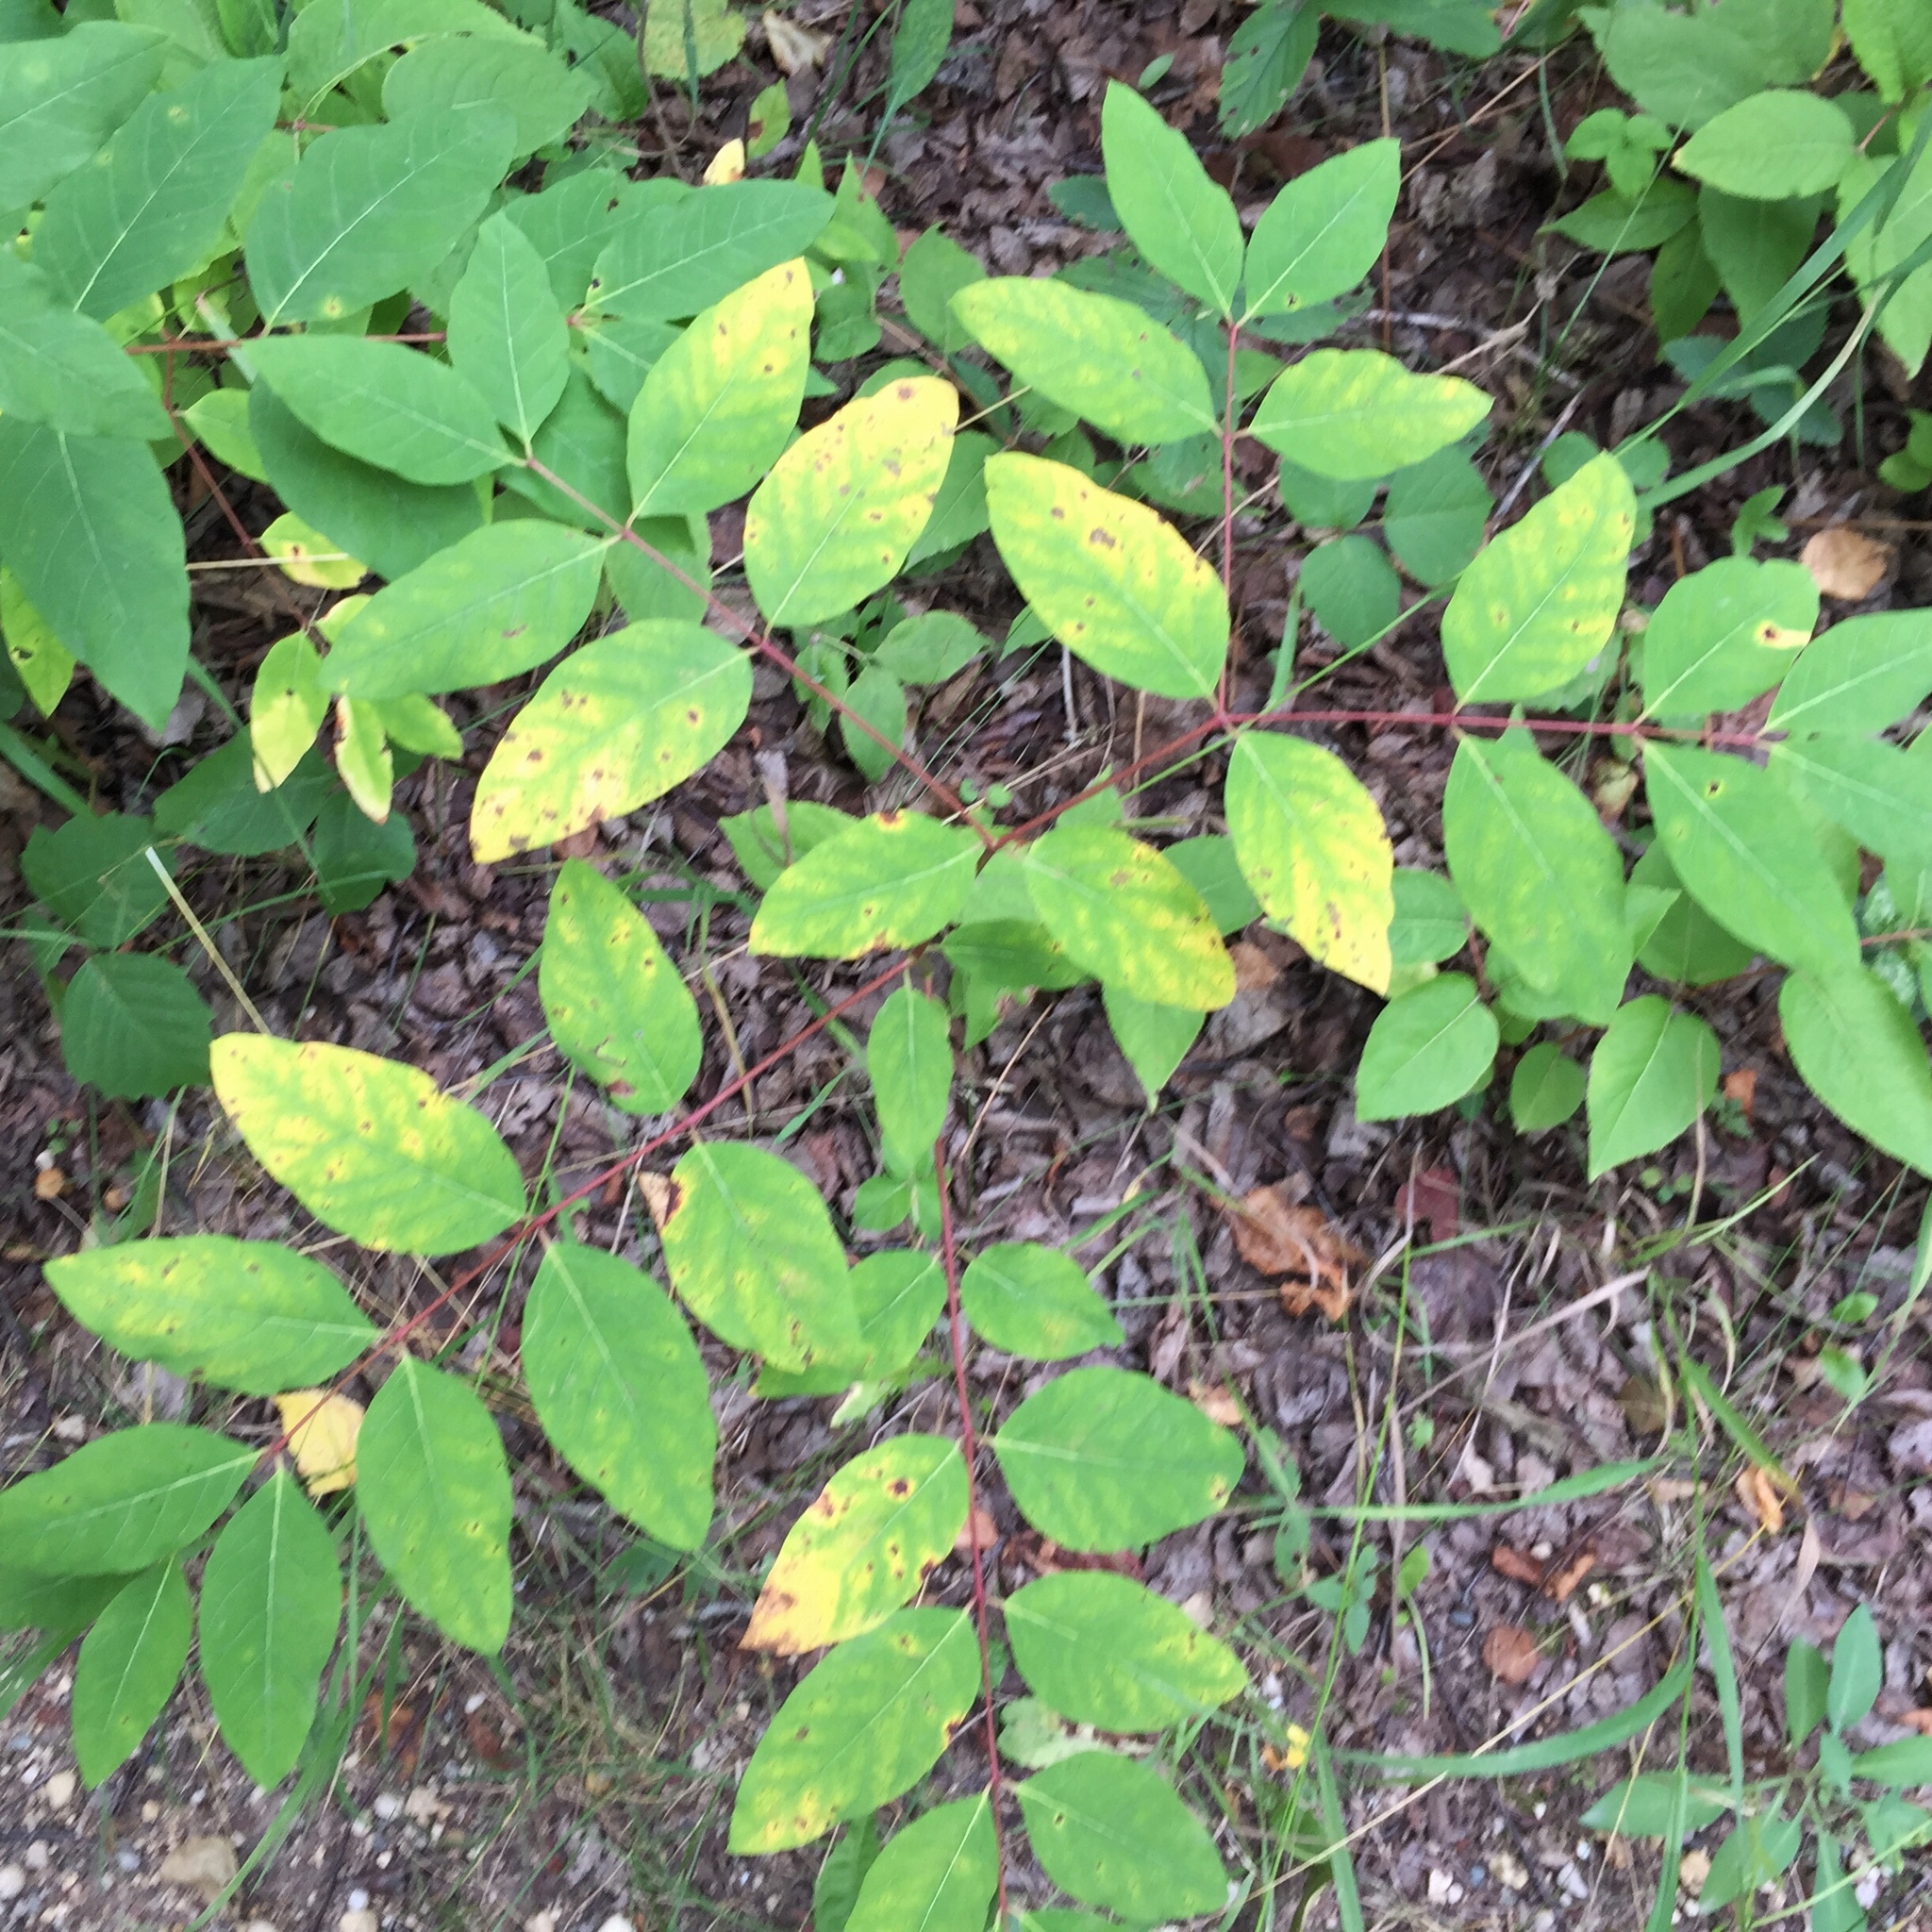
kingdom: Plantae
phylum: Tracheophyta
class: Magnoliopsida
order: Gentianales
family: Apocynaceae
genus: Apocynum
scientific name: Apocynum androsaemifolium
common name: Spreading dogbane
